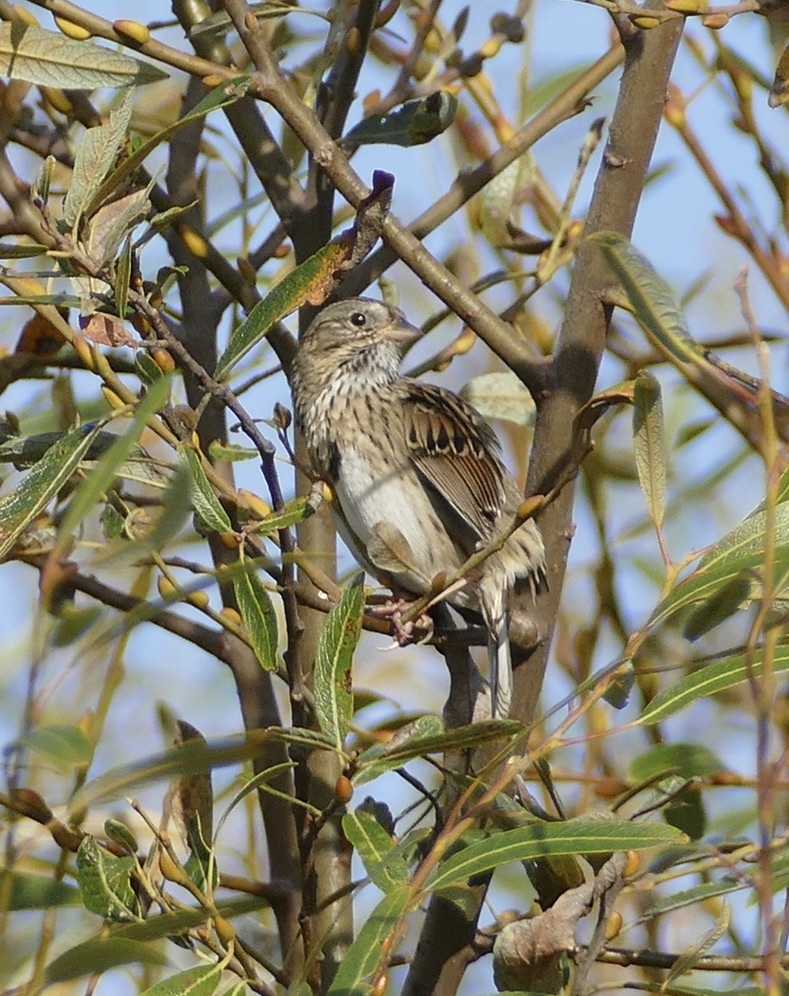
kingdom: Animalia
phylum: Chordata
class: Aves
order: Passeriformes
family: Passerellidae
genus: Melospiza
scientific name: Melospiza lincolnii
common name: Lincoln's sparrow
